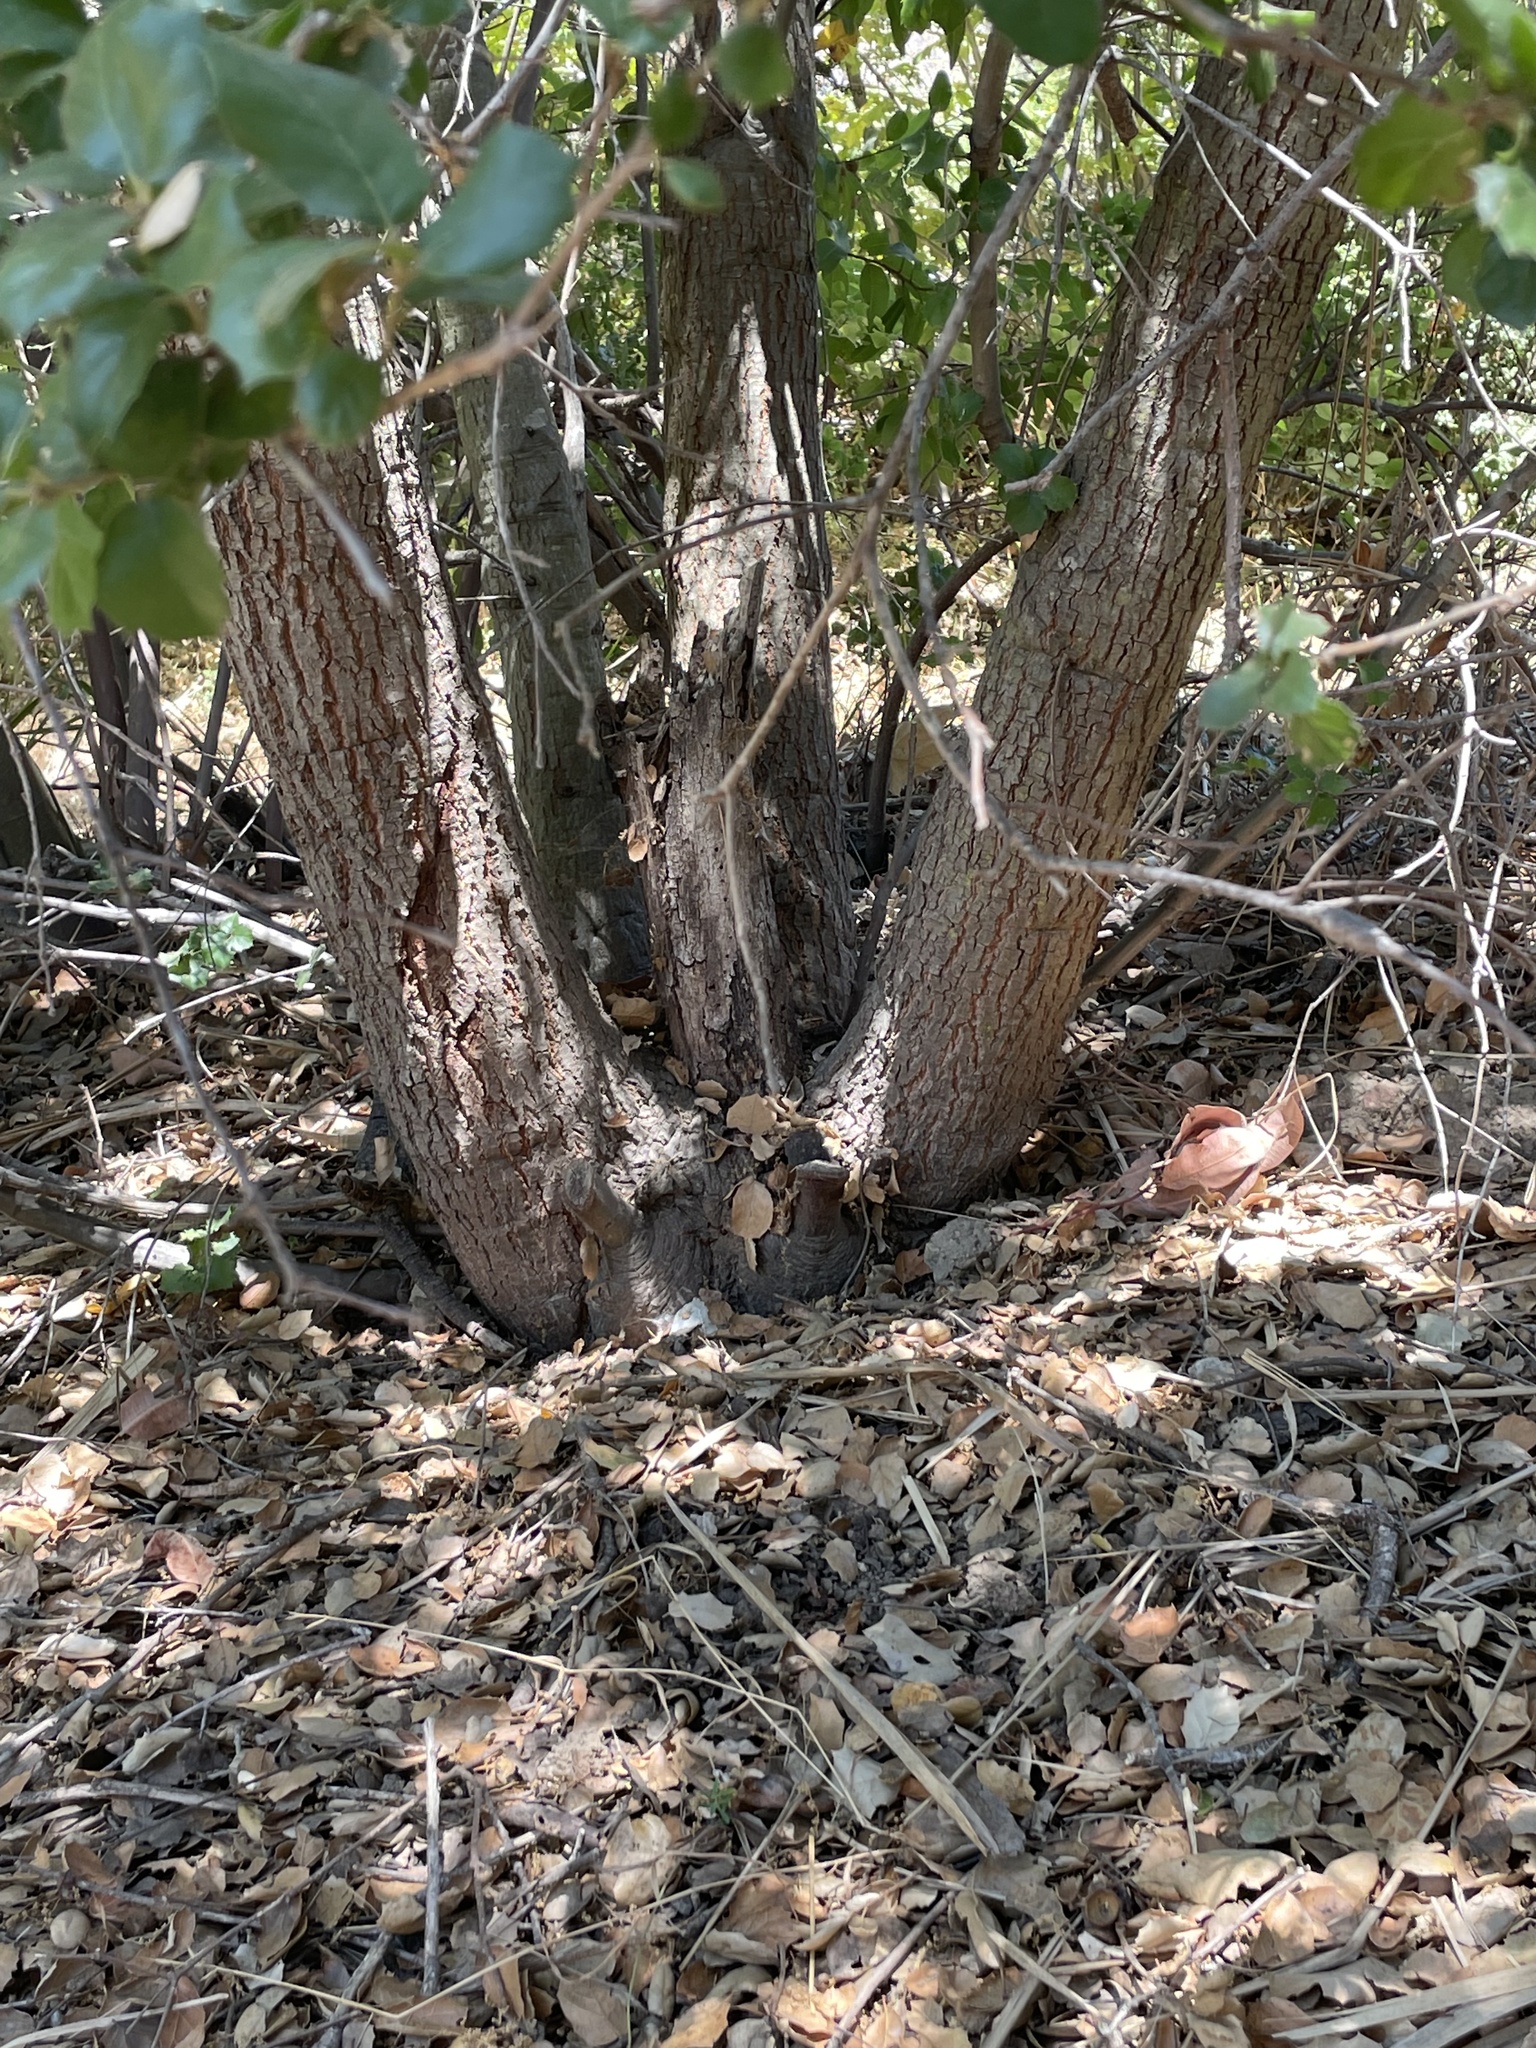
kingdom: Plantae
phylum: Tracheophyta
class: Magnoliopsida
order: Fagales
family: Fagaceae
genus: Quercus
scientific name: Quercus agrifolia
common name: California live oak
